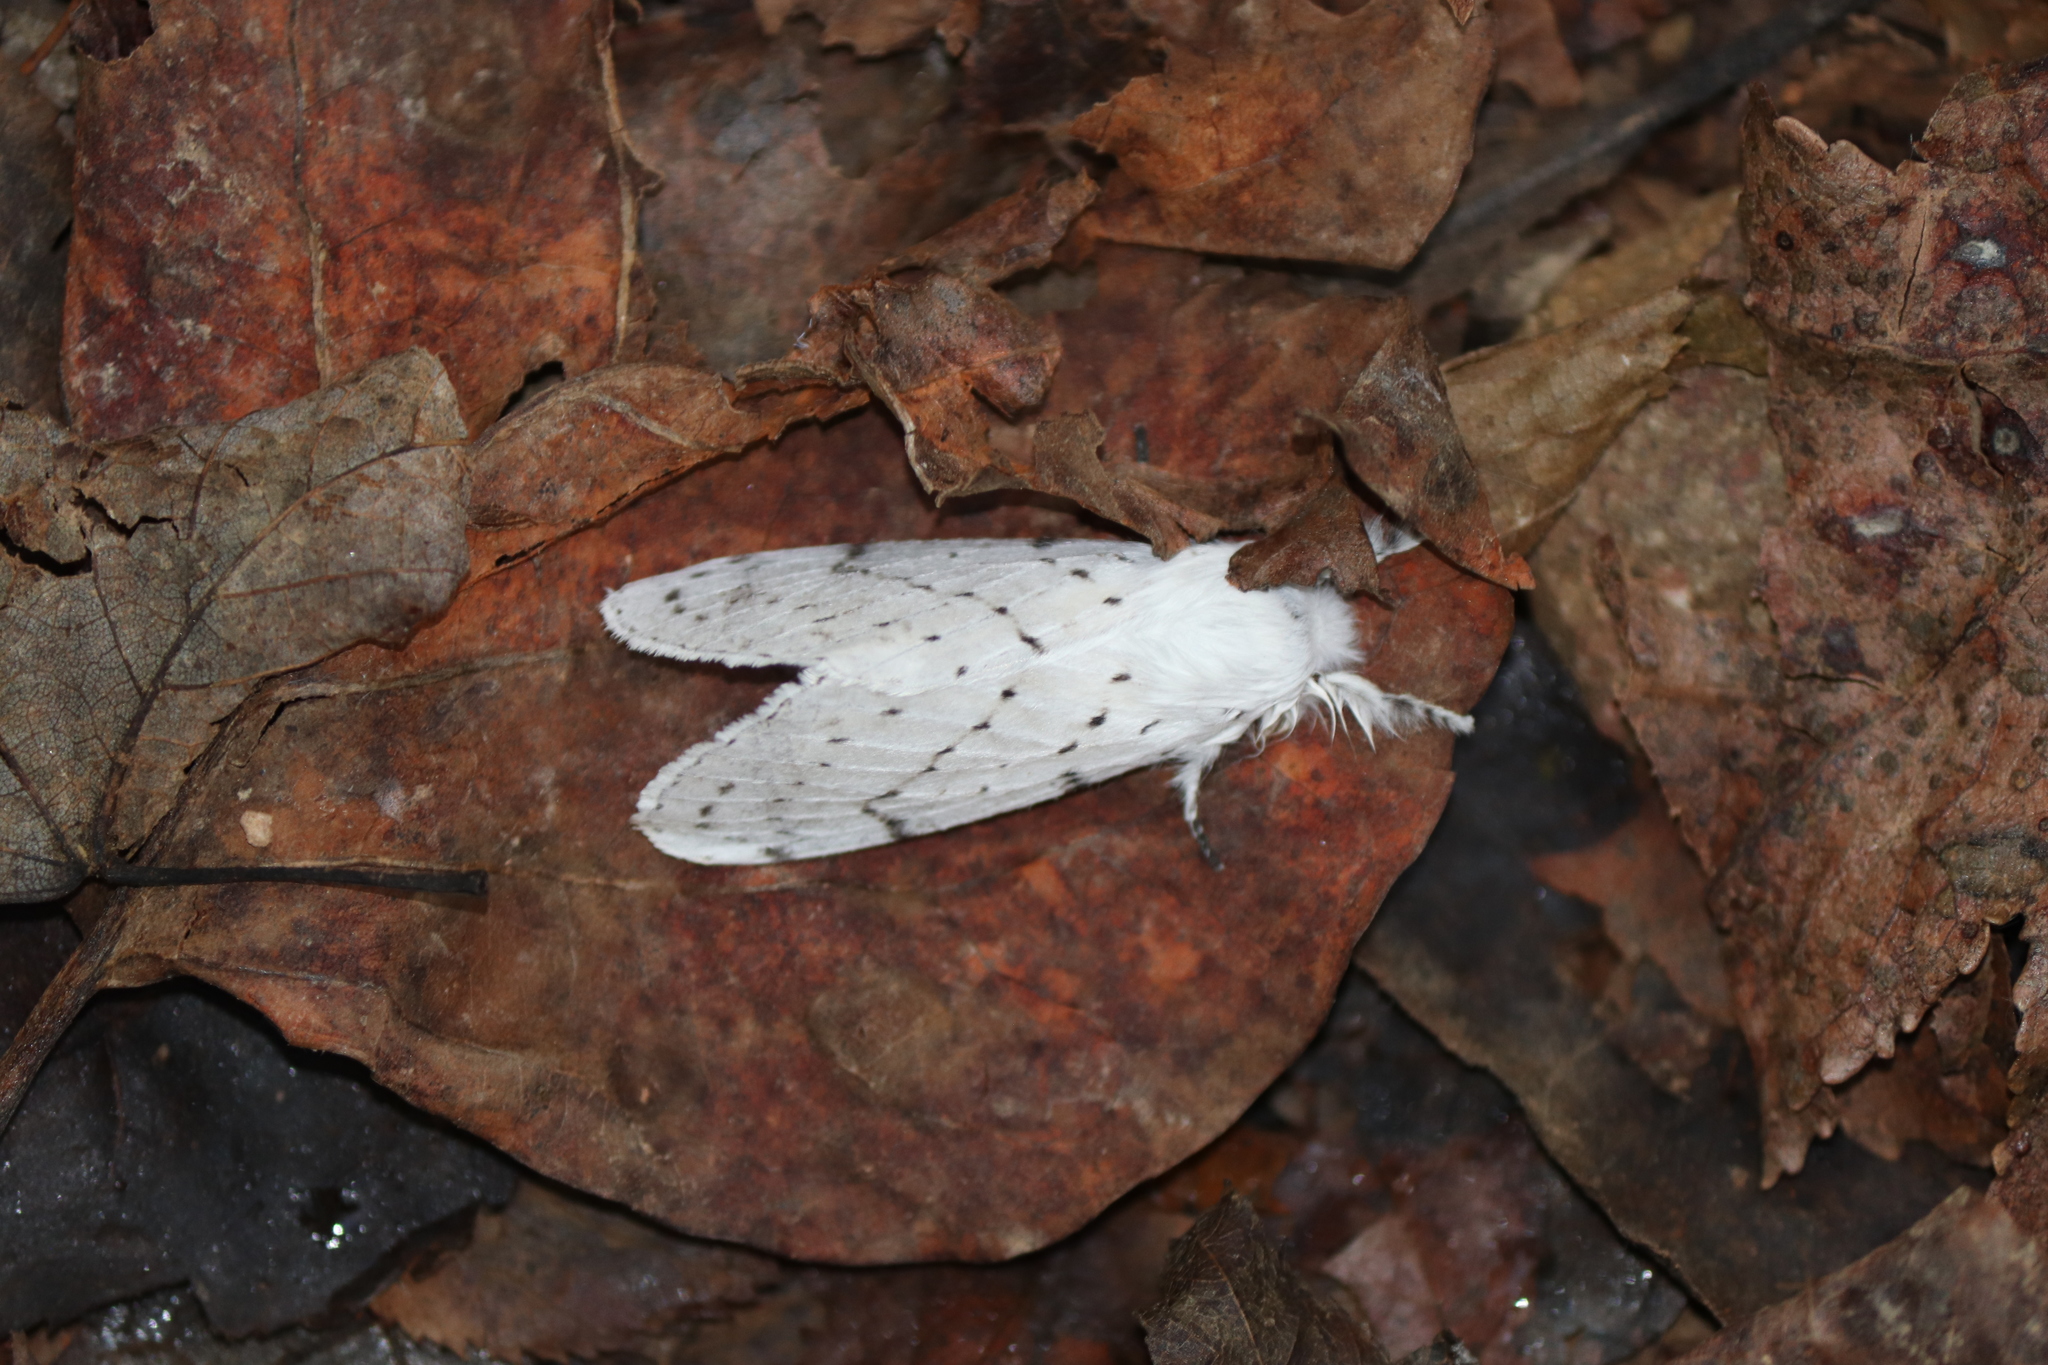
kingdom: Animalia
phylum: Arthropoda
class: Insecta
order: Lepidoptera
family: Lasiocampidae
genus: Artace
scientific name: Artace cribrarius
